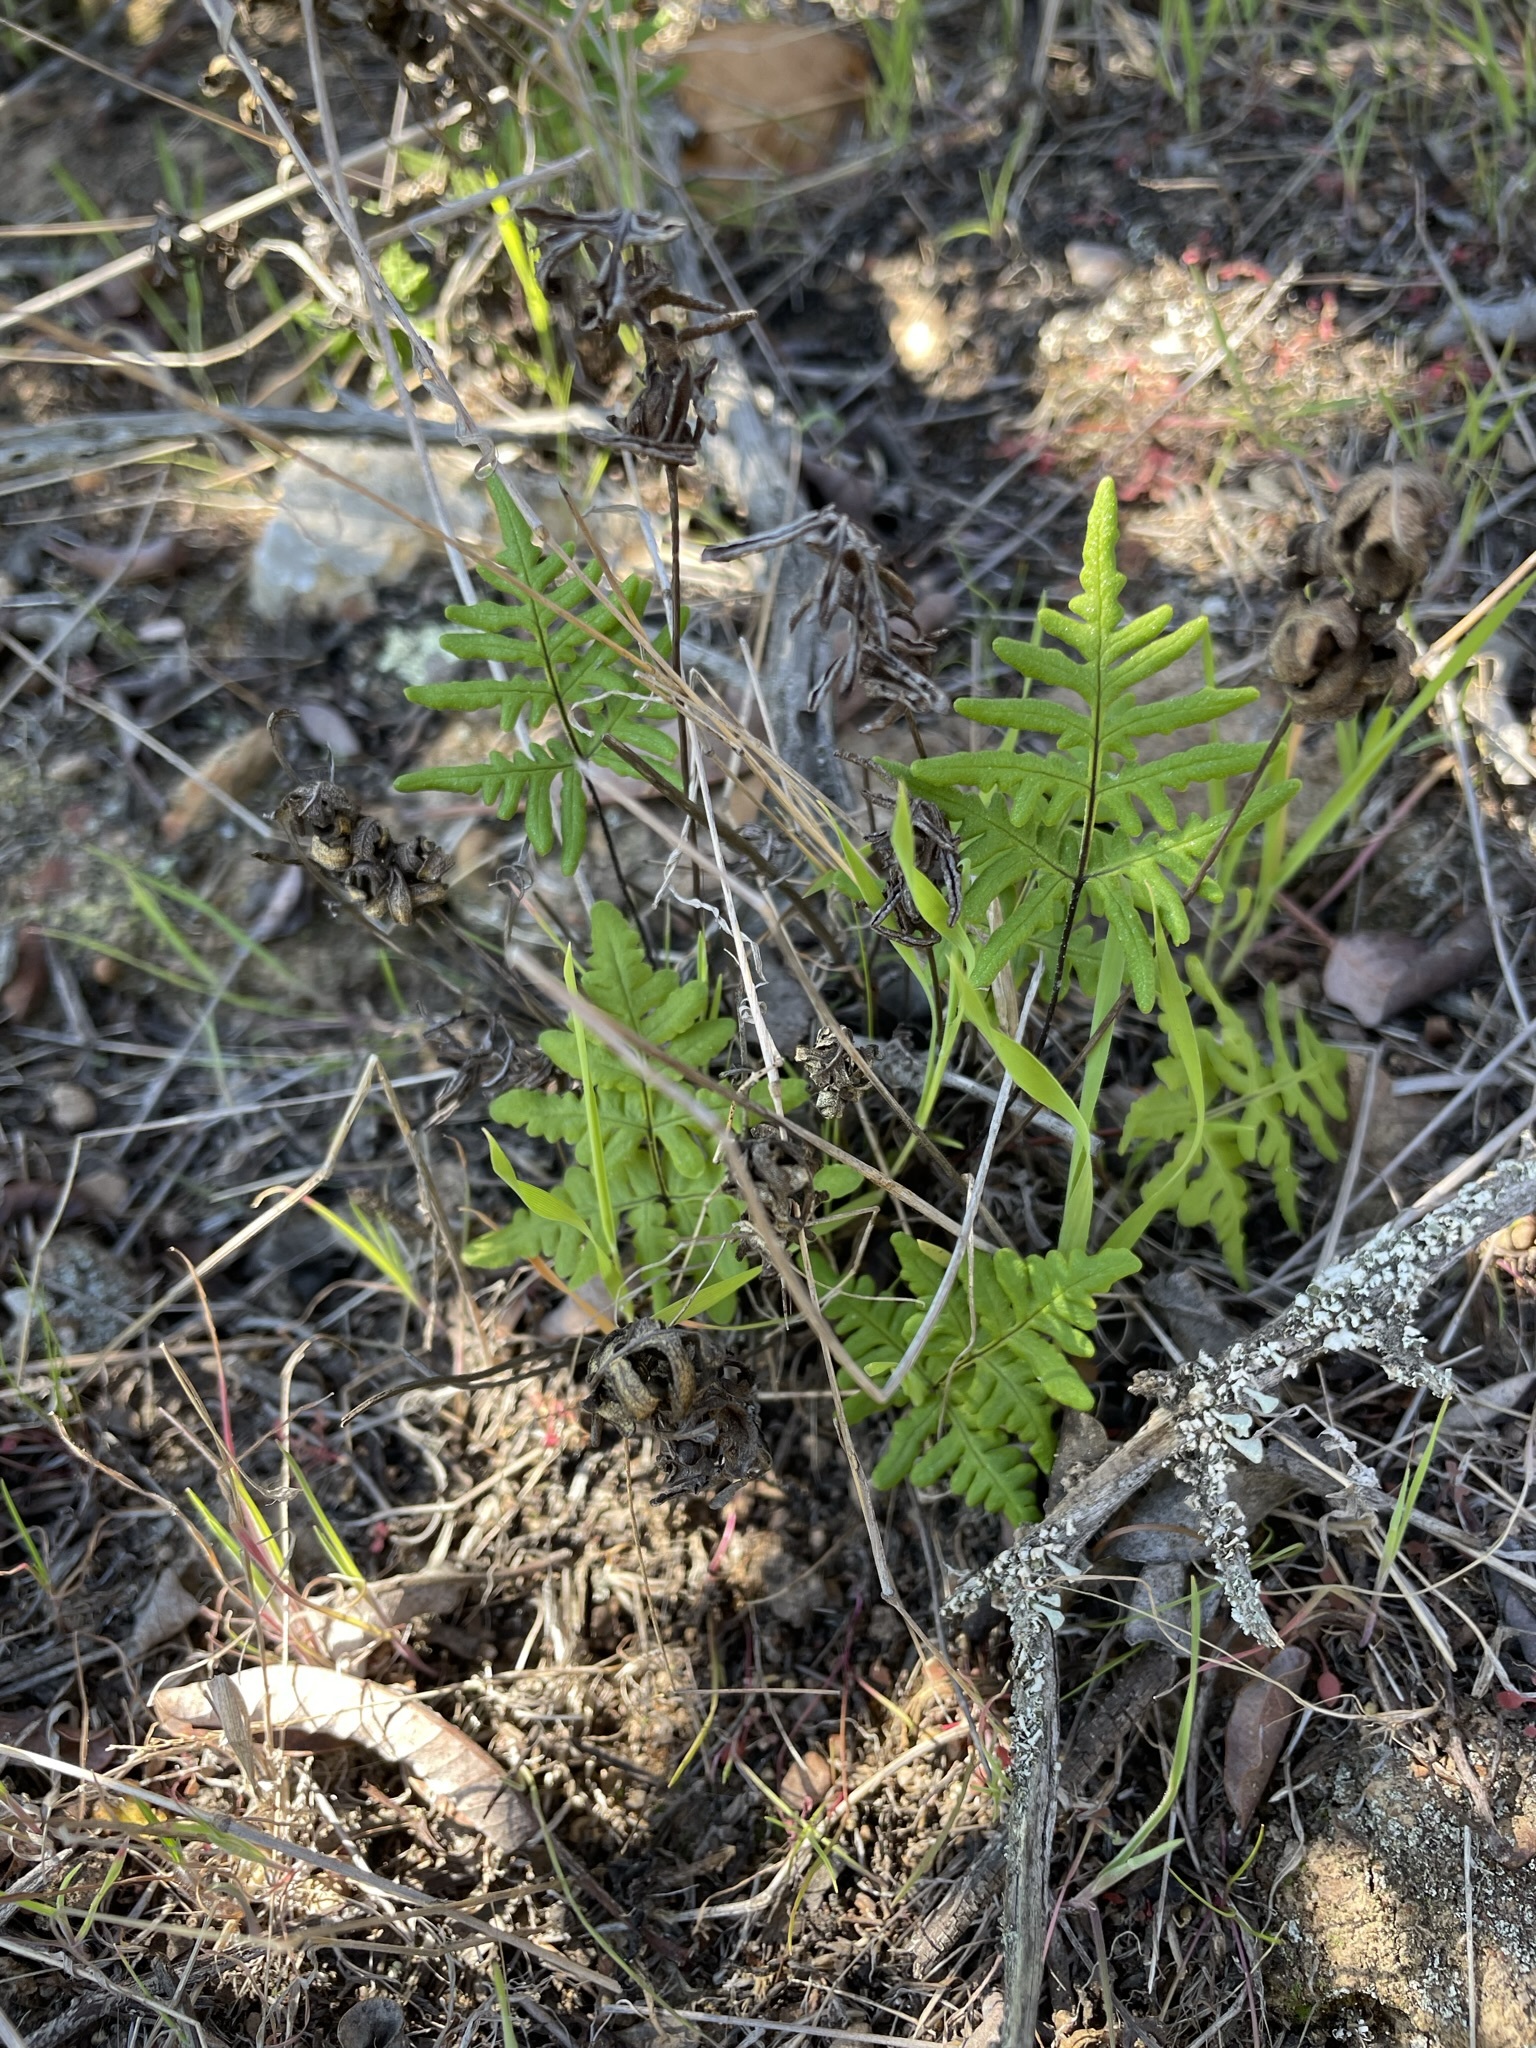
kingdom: Plantae
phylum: Tracheophyta
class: Polypodiopsida
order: Polypodiales
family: Pteridaceae
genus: Pentagramma
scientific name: Pentagramma triangularis
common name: Gold fern
